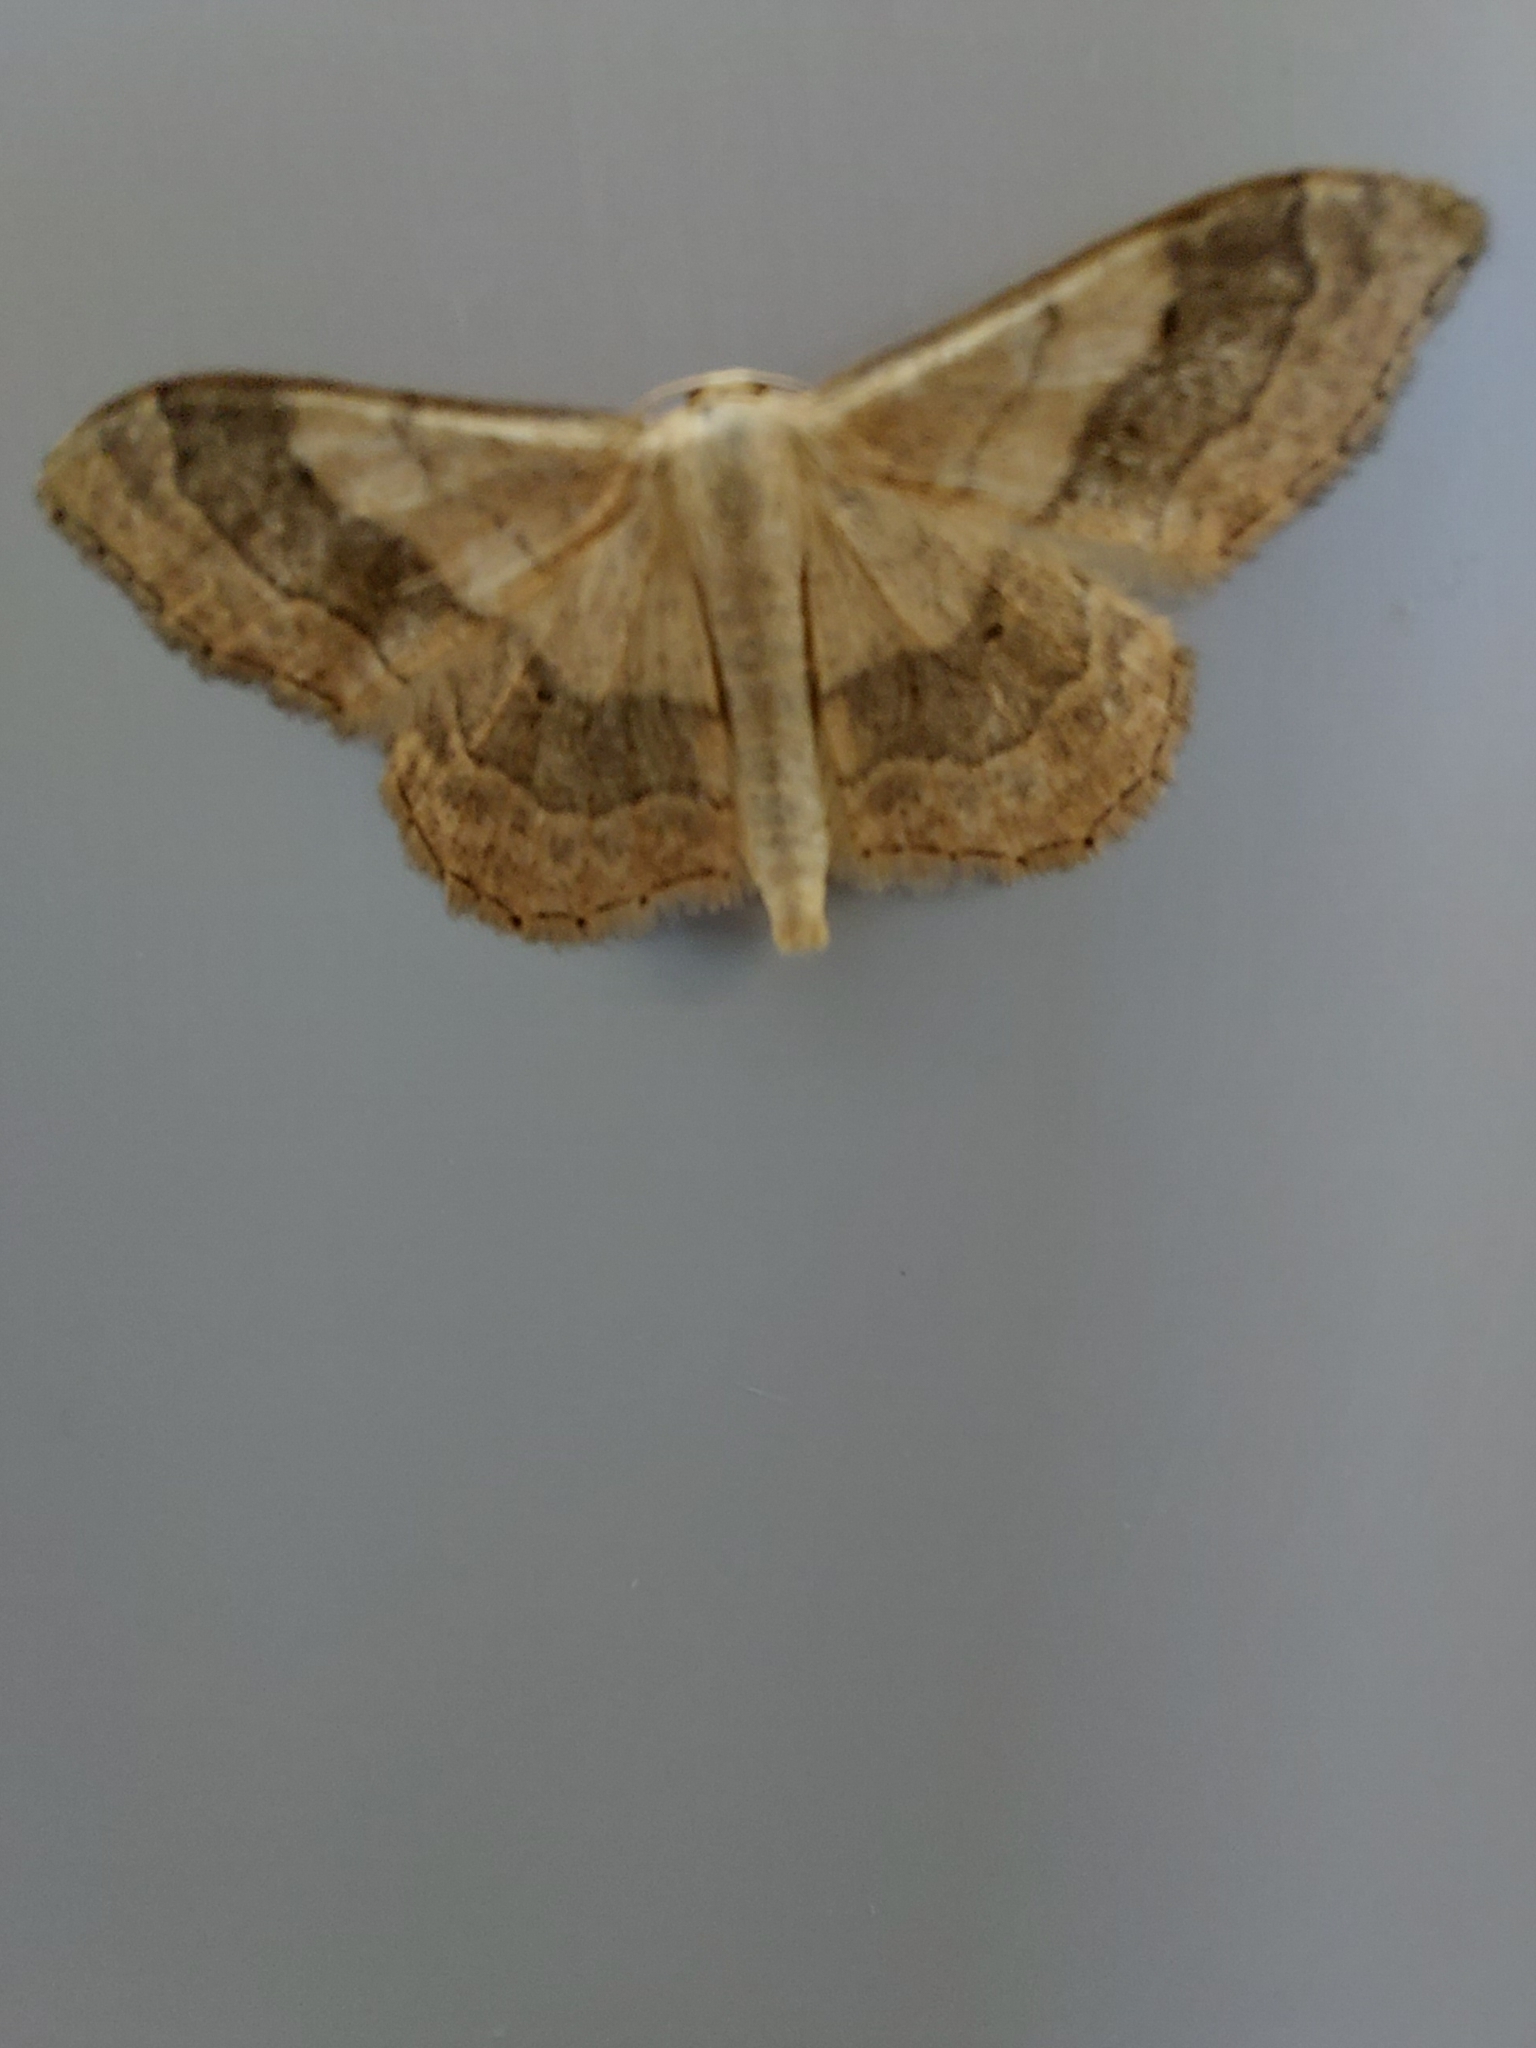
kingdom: Animalia
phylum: Arthropoda
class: Insecta
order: Lepidoptera
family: Geometridae
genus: Idaea
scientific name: Idaea aversata
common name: Riband wave
